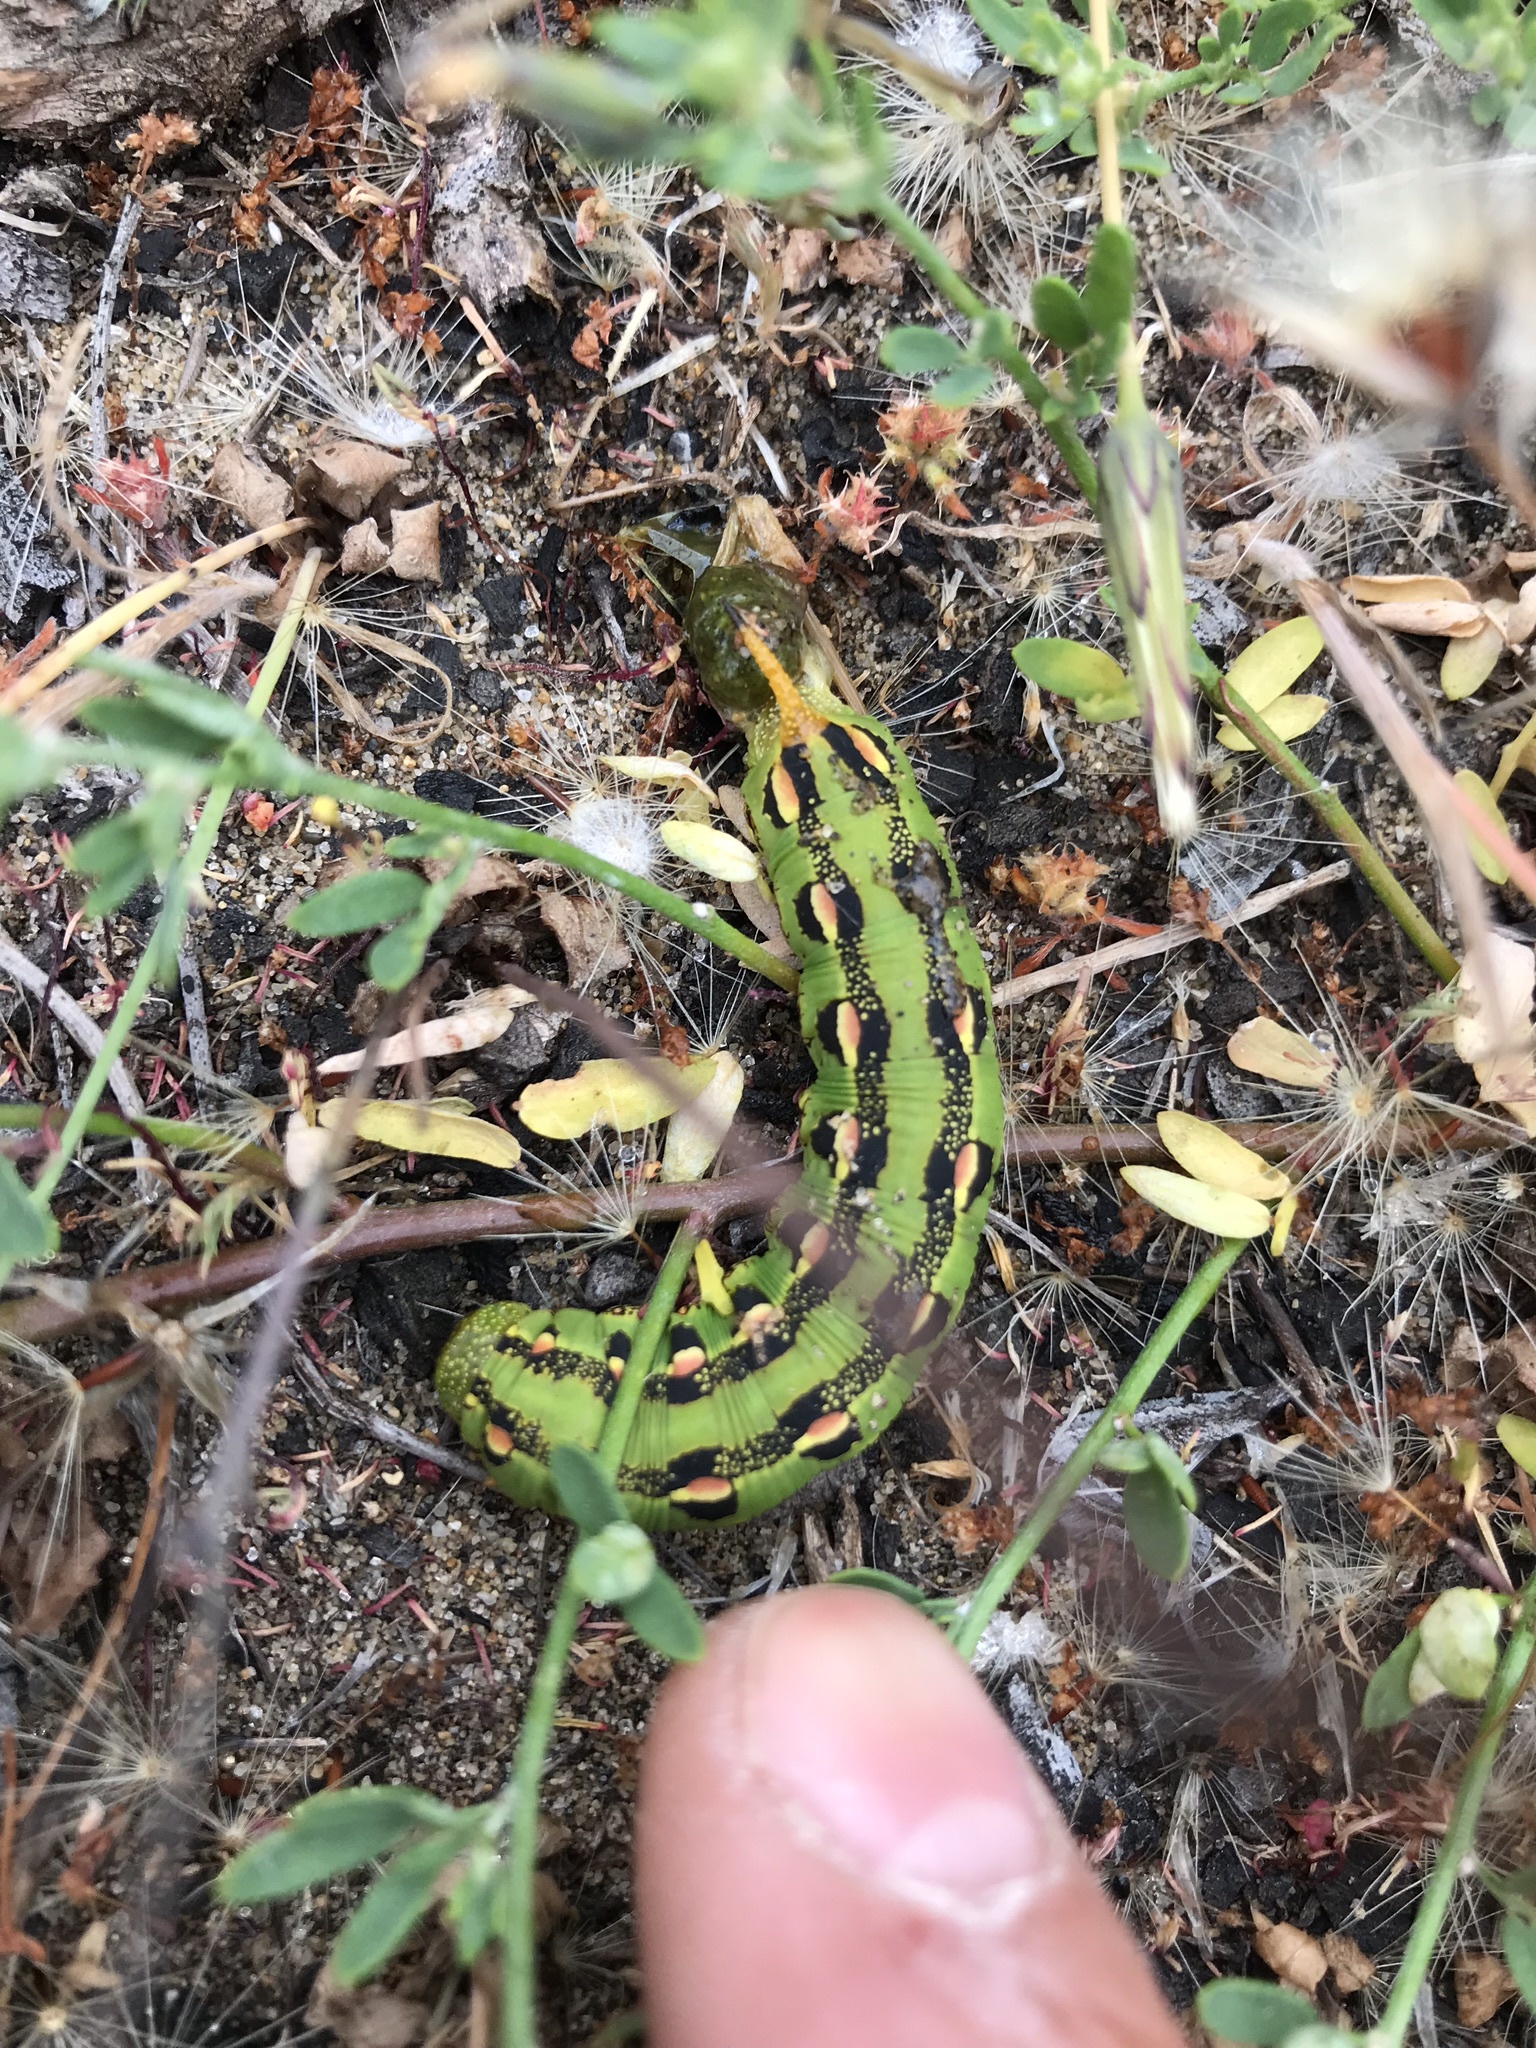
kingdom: Animalia
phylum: Arthropoda
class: Insecta
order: Lepidoptera
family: Sphingidae
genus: Hyles
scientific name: Hyles lineata
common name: White-lined sphinx
